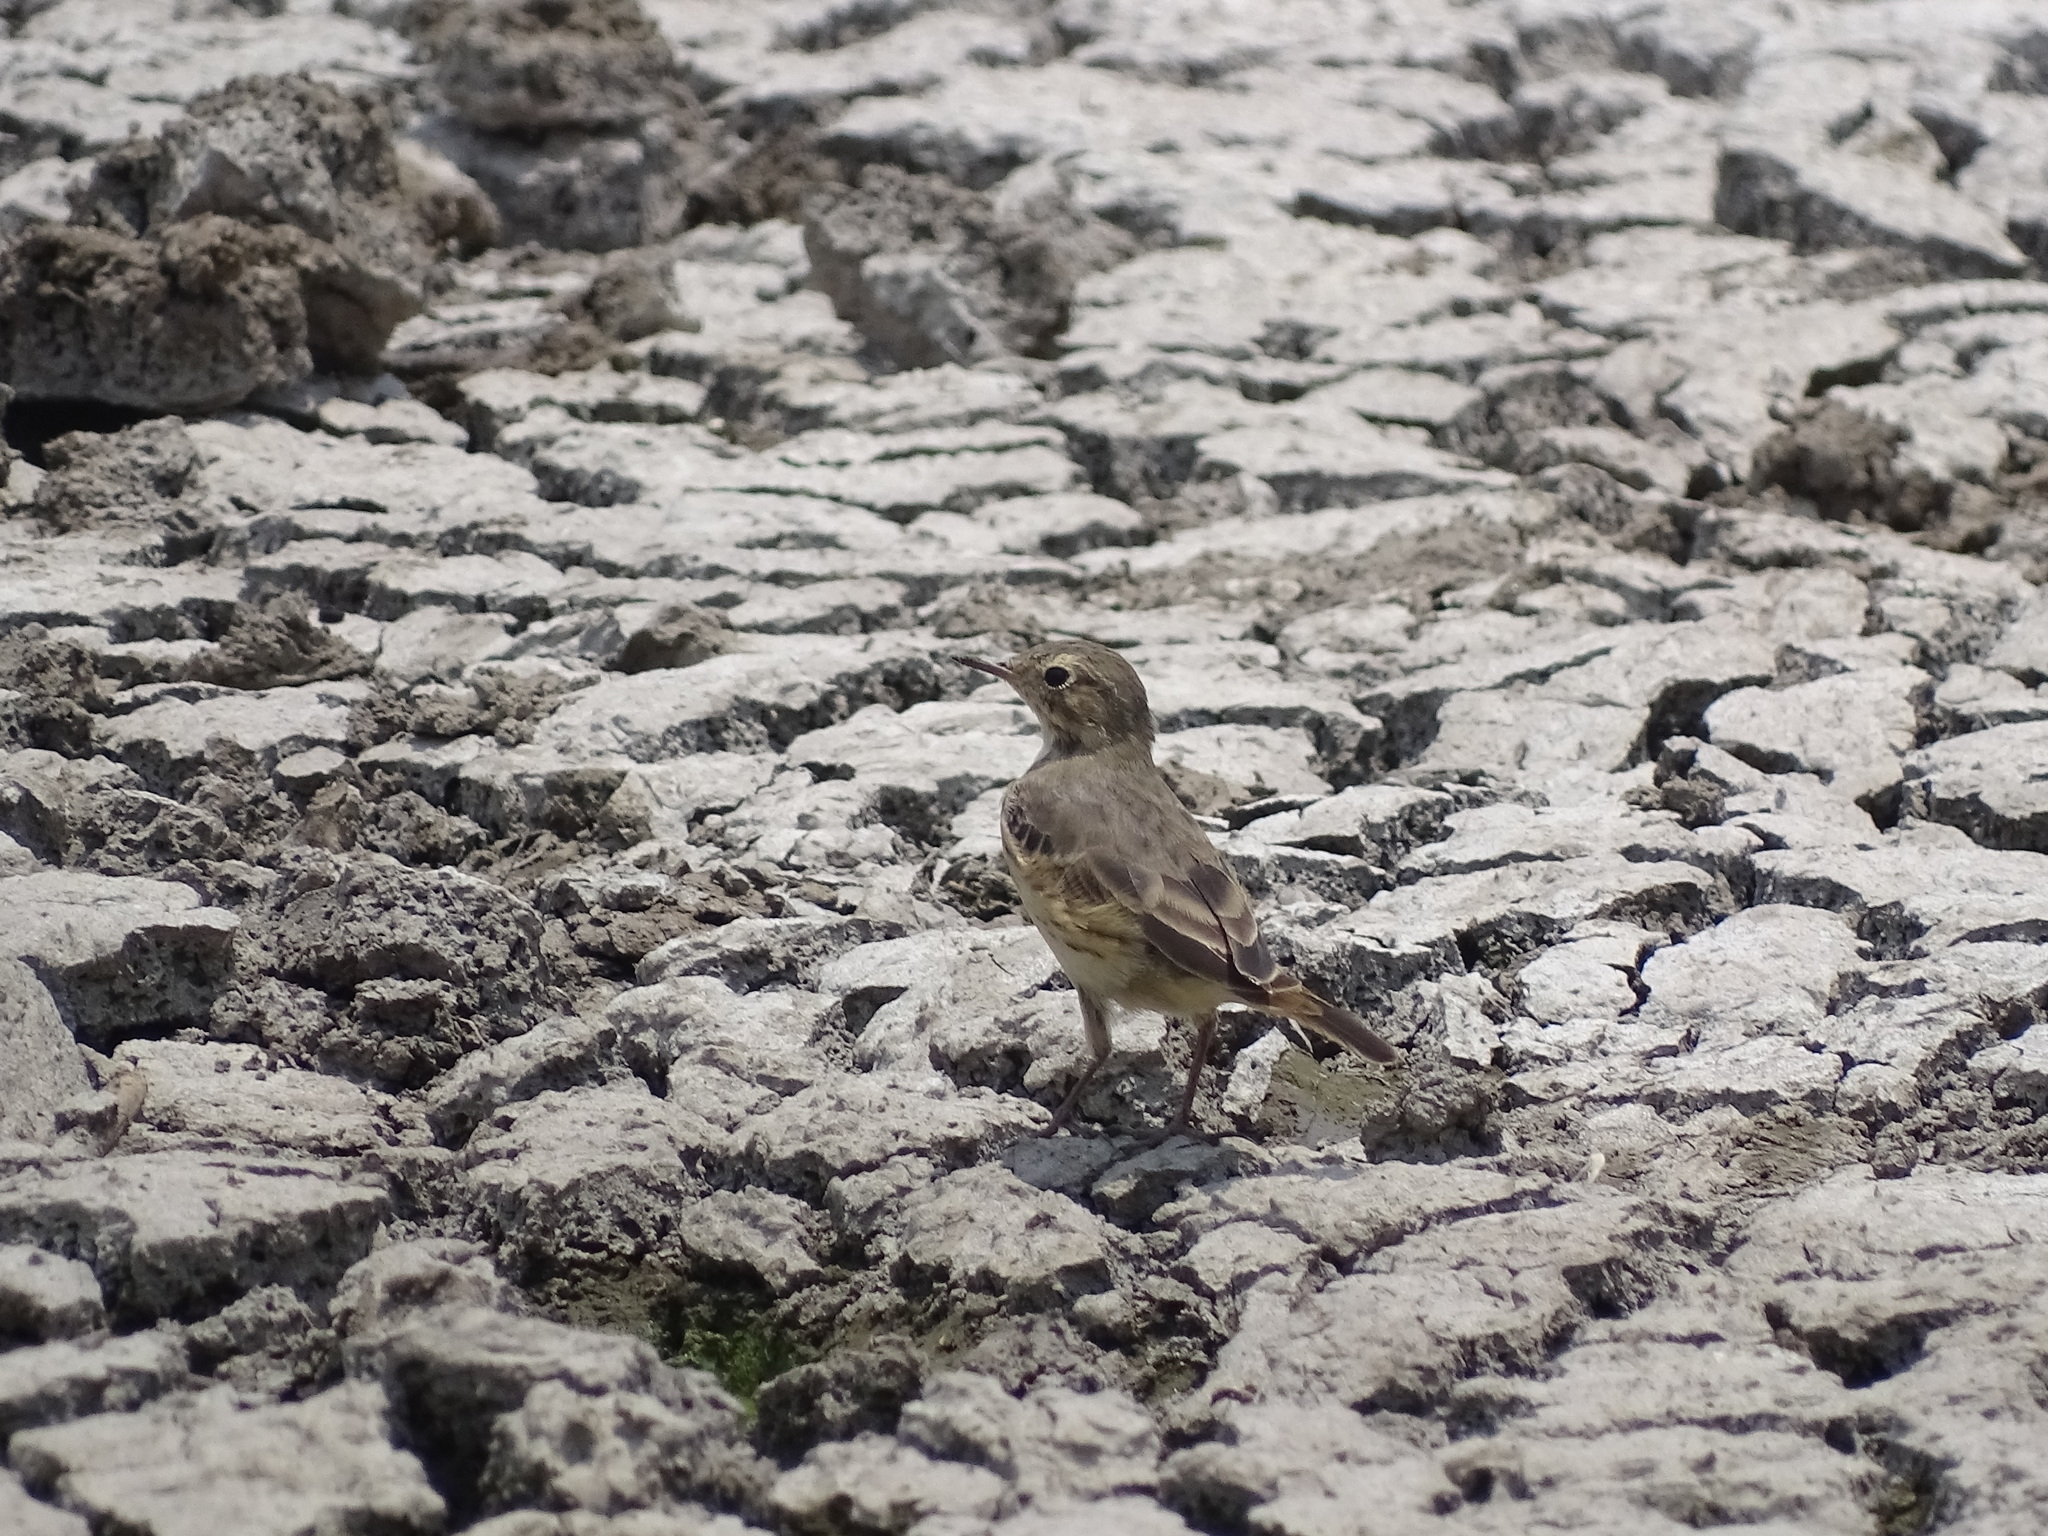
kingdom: Animalia
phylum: Chordata
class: Aves
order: Passeriformes
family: Motacillidae
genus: Anthus
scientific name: Anthus rubescens
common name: Buff-bellied pipit
